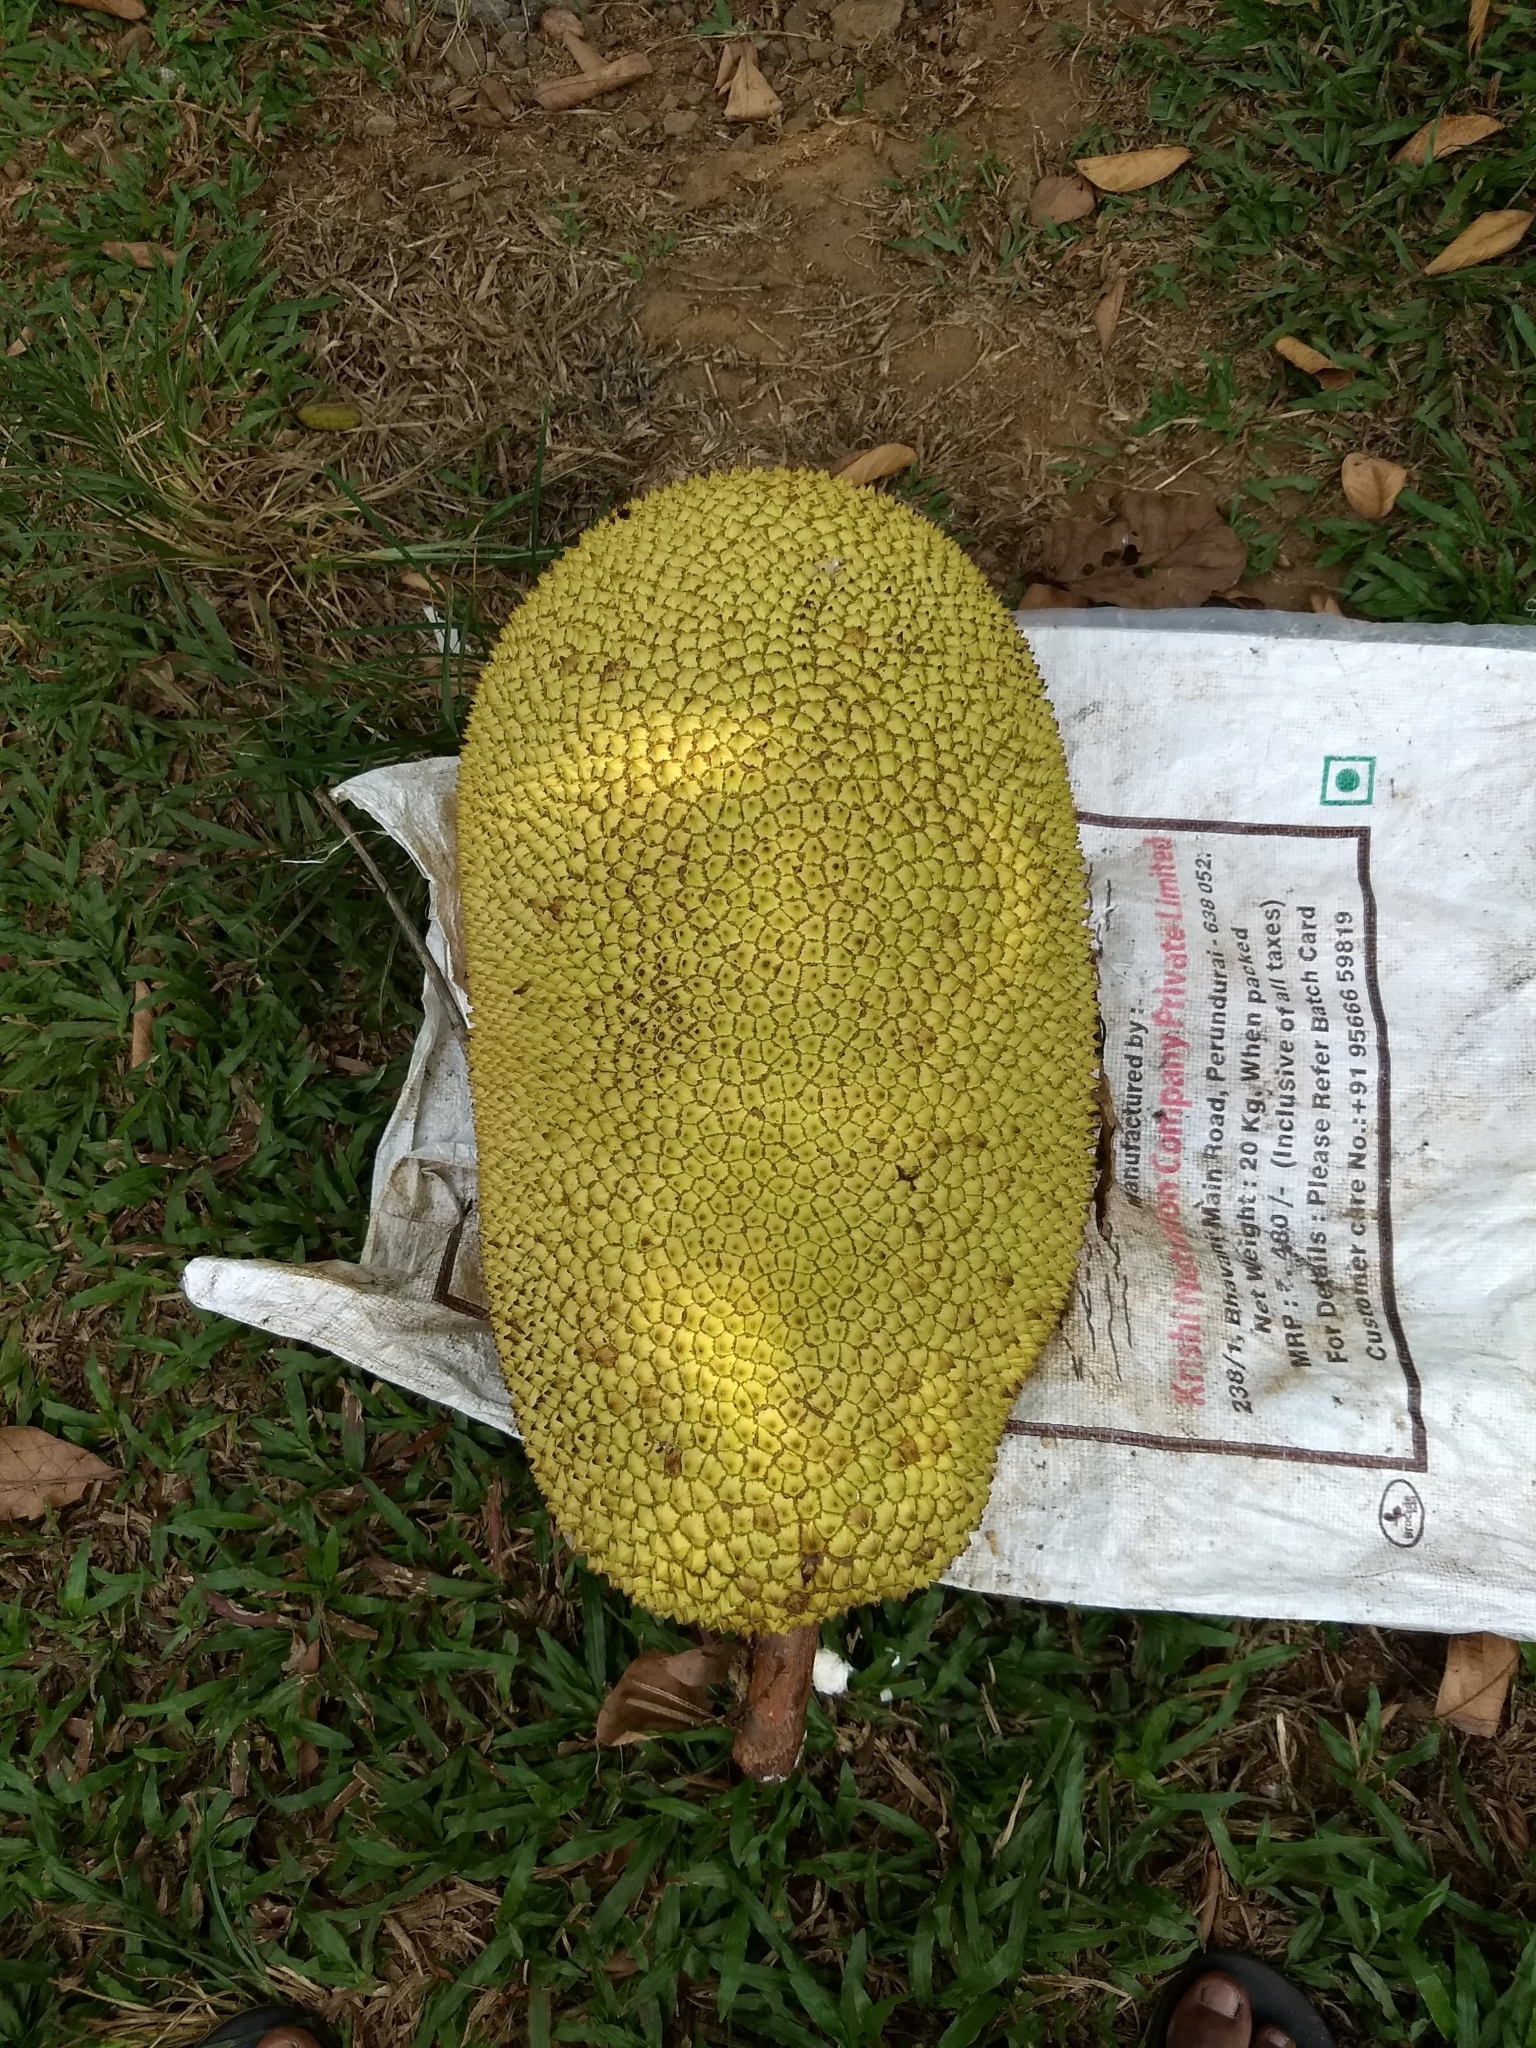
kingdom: Plantae
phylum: Tracheophyta
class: Magnoliopsida
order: Rosales
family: Moraceae
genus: Artocarpus
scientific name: Artocarpus heterophyllus
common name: Jackfruit
